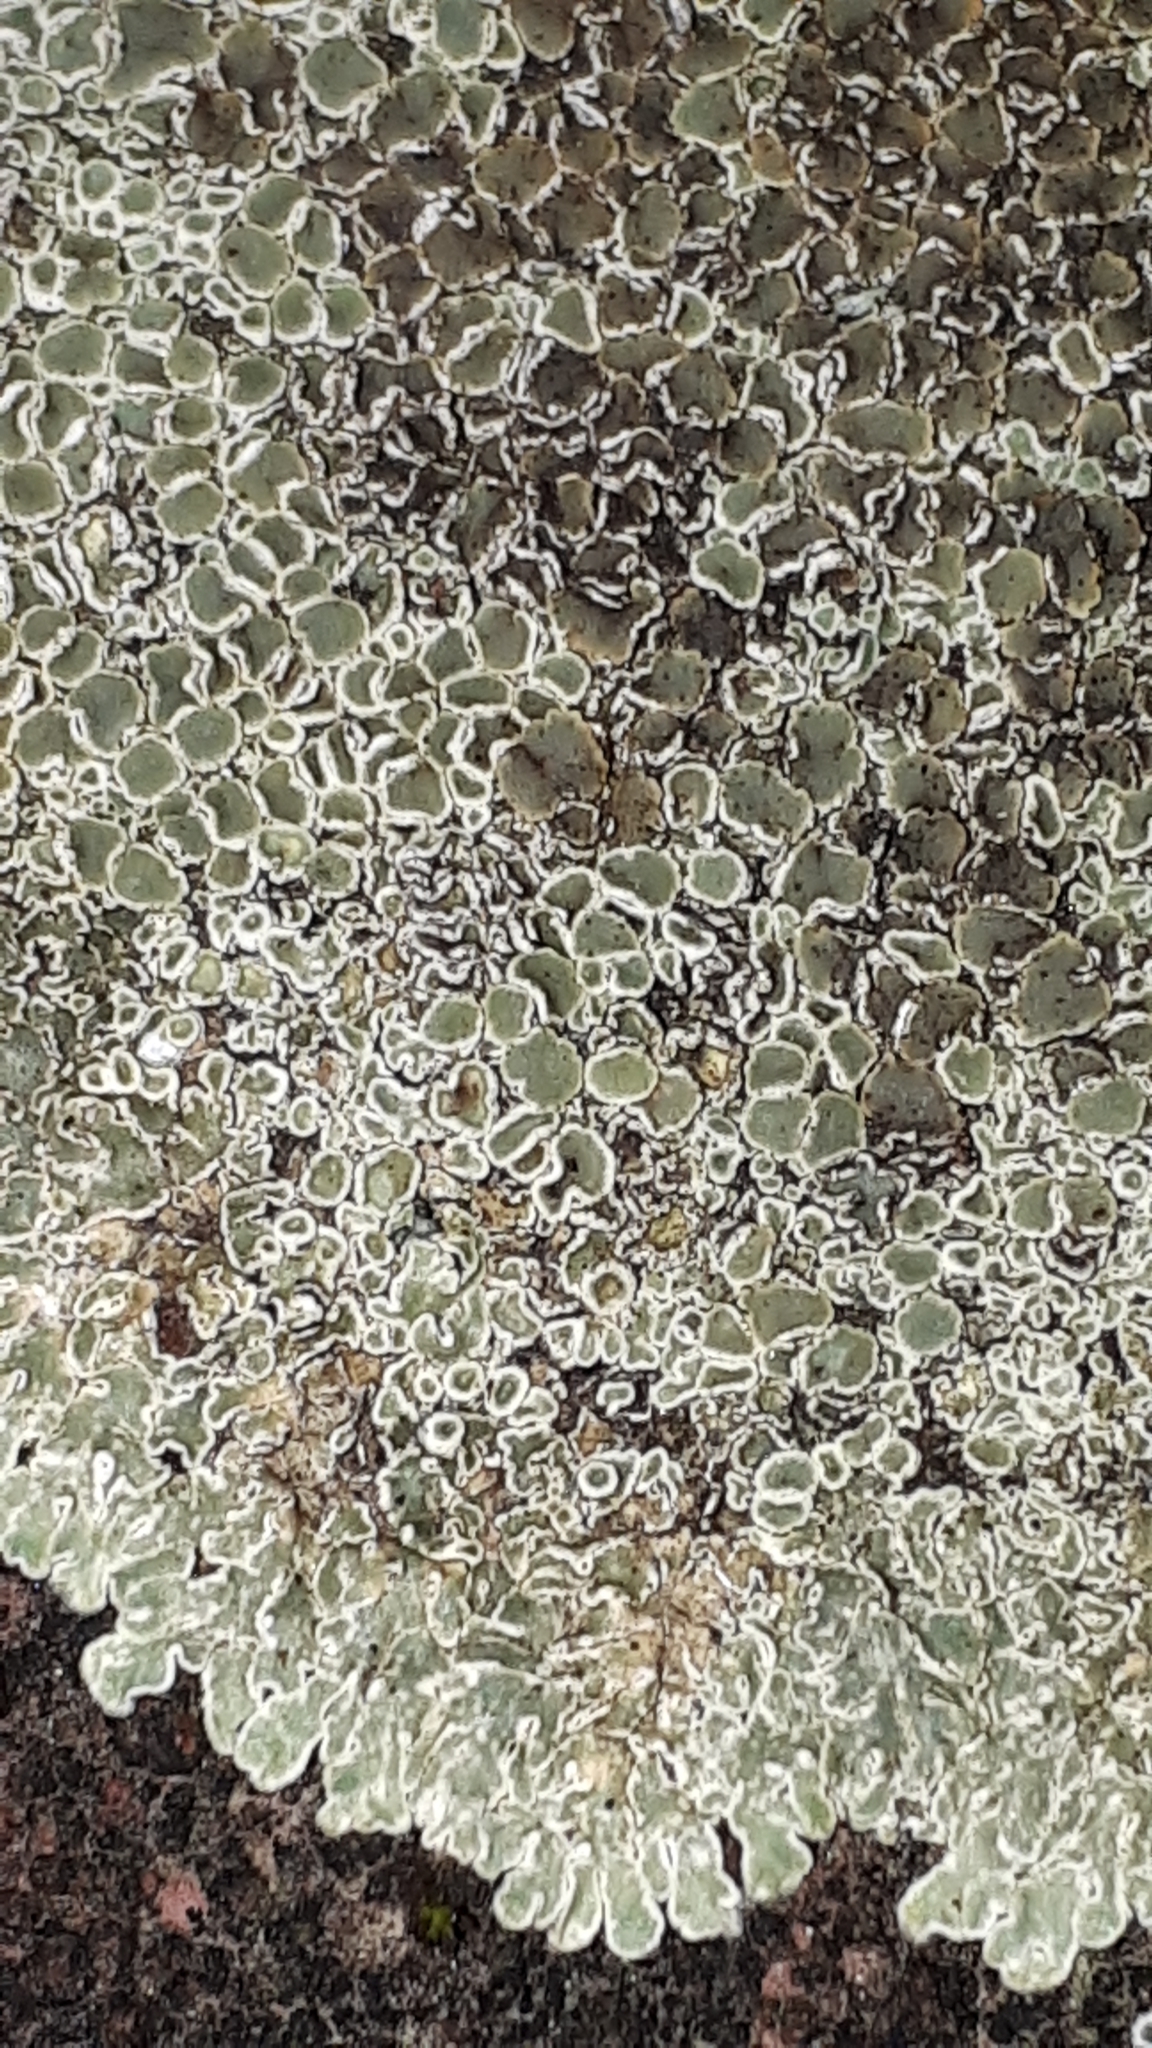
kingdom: Fungi
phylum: Ascomycota
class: Lecanoromycetes
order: Lecanorales
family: Lecanoraceae
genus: Protoparmeliopsis
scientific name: Protoparmeliopsis muralis
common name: Stonewall rim lichen
